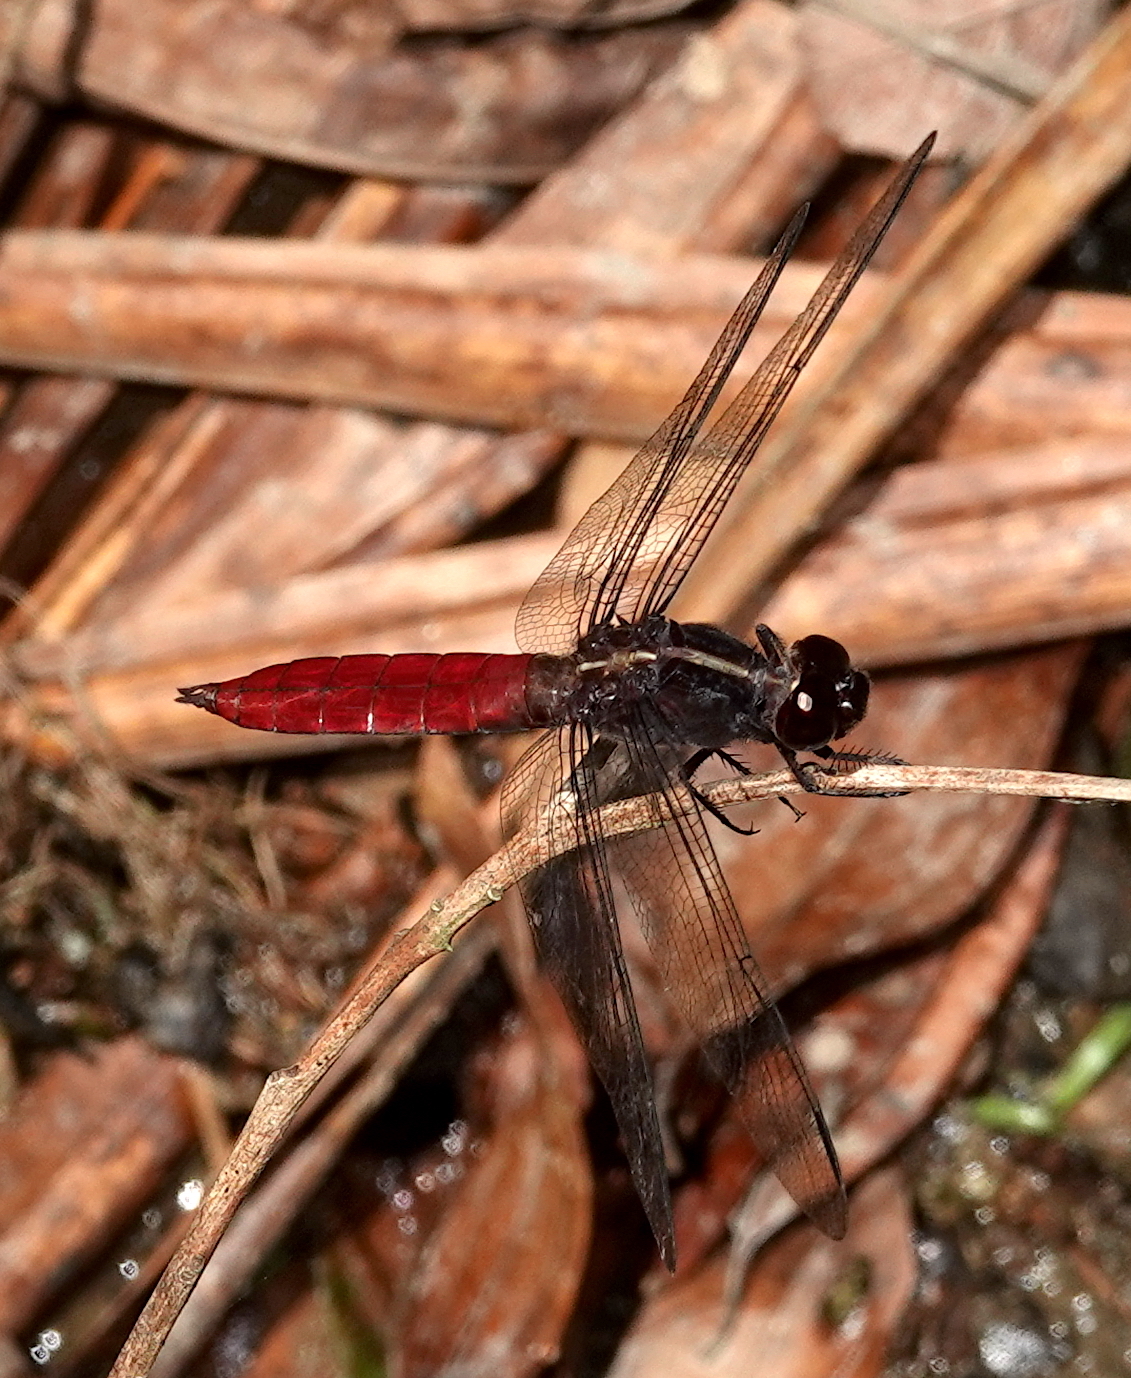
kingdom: Animalia
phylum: Arthropoda
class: Insecta
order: Odonata
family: Libellulidae
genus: Libellula
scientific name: Libellula herculea
